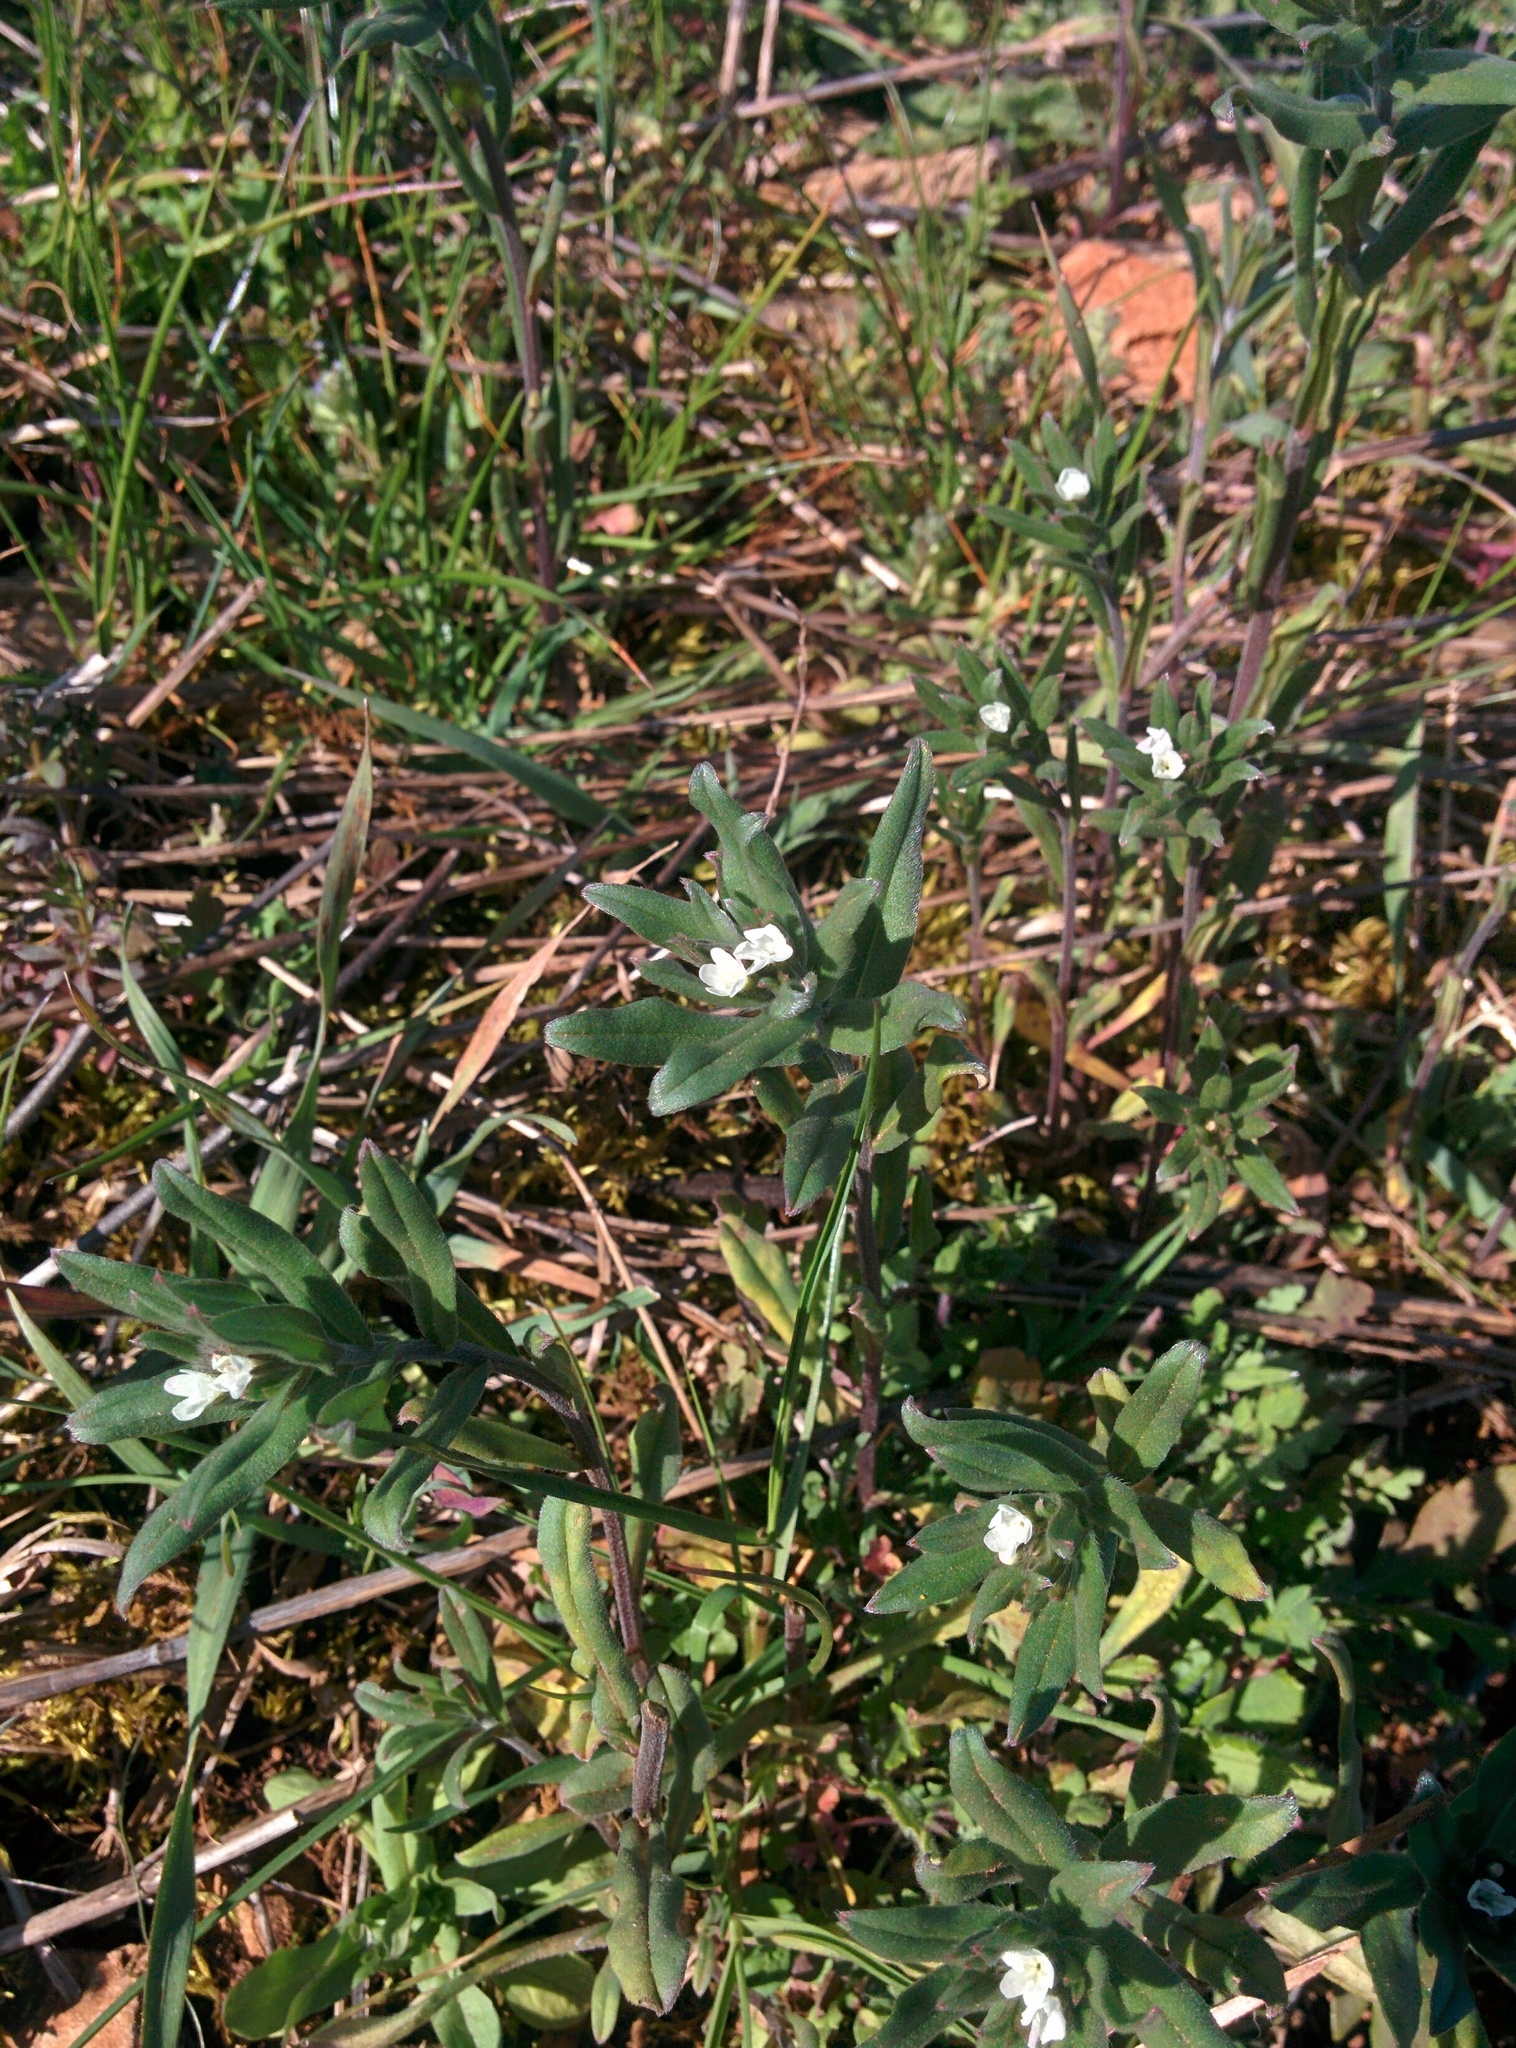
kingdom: Plantae
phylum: Tracheophyta
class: Magnoliopsida
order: Boraginales
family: Boraginaceae
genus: Buglossoides
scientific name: Buglossoides arvensis
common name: Corn gromwell
